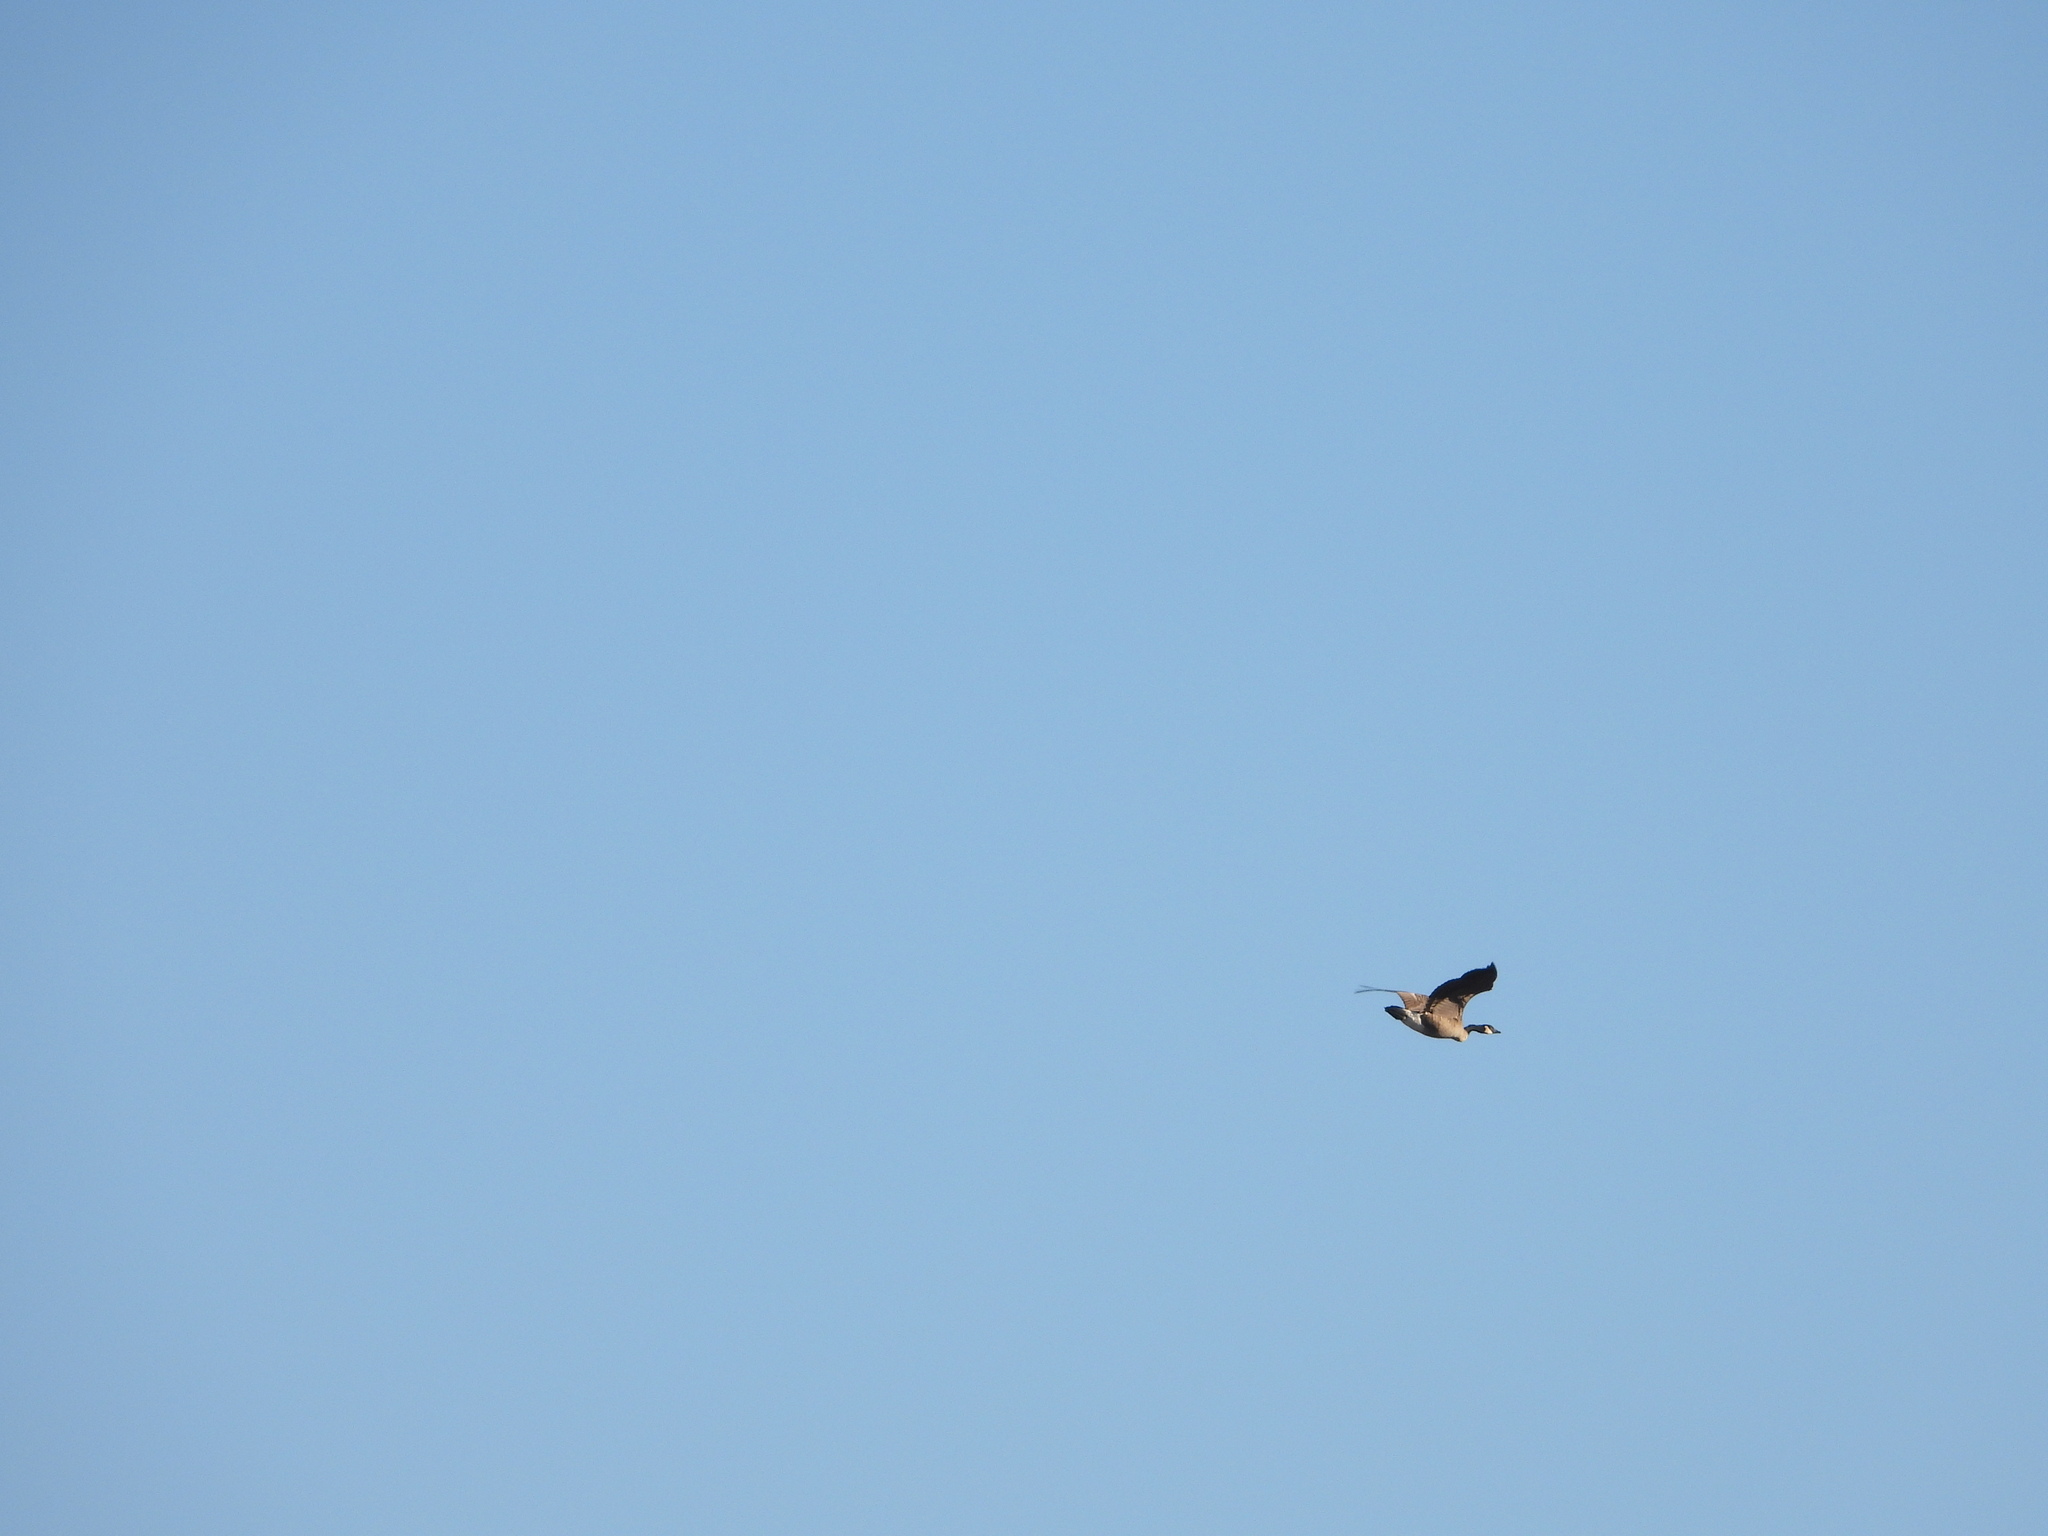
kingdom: Animalia
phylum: Chordata
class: Aves
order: Anseriformes
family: Anatidae
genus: Branta
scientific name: Branta canadensis
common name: Canada goose
